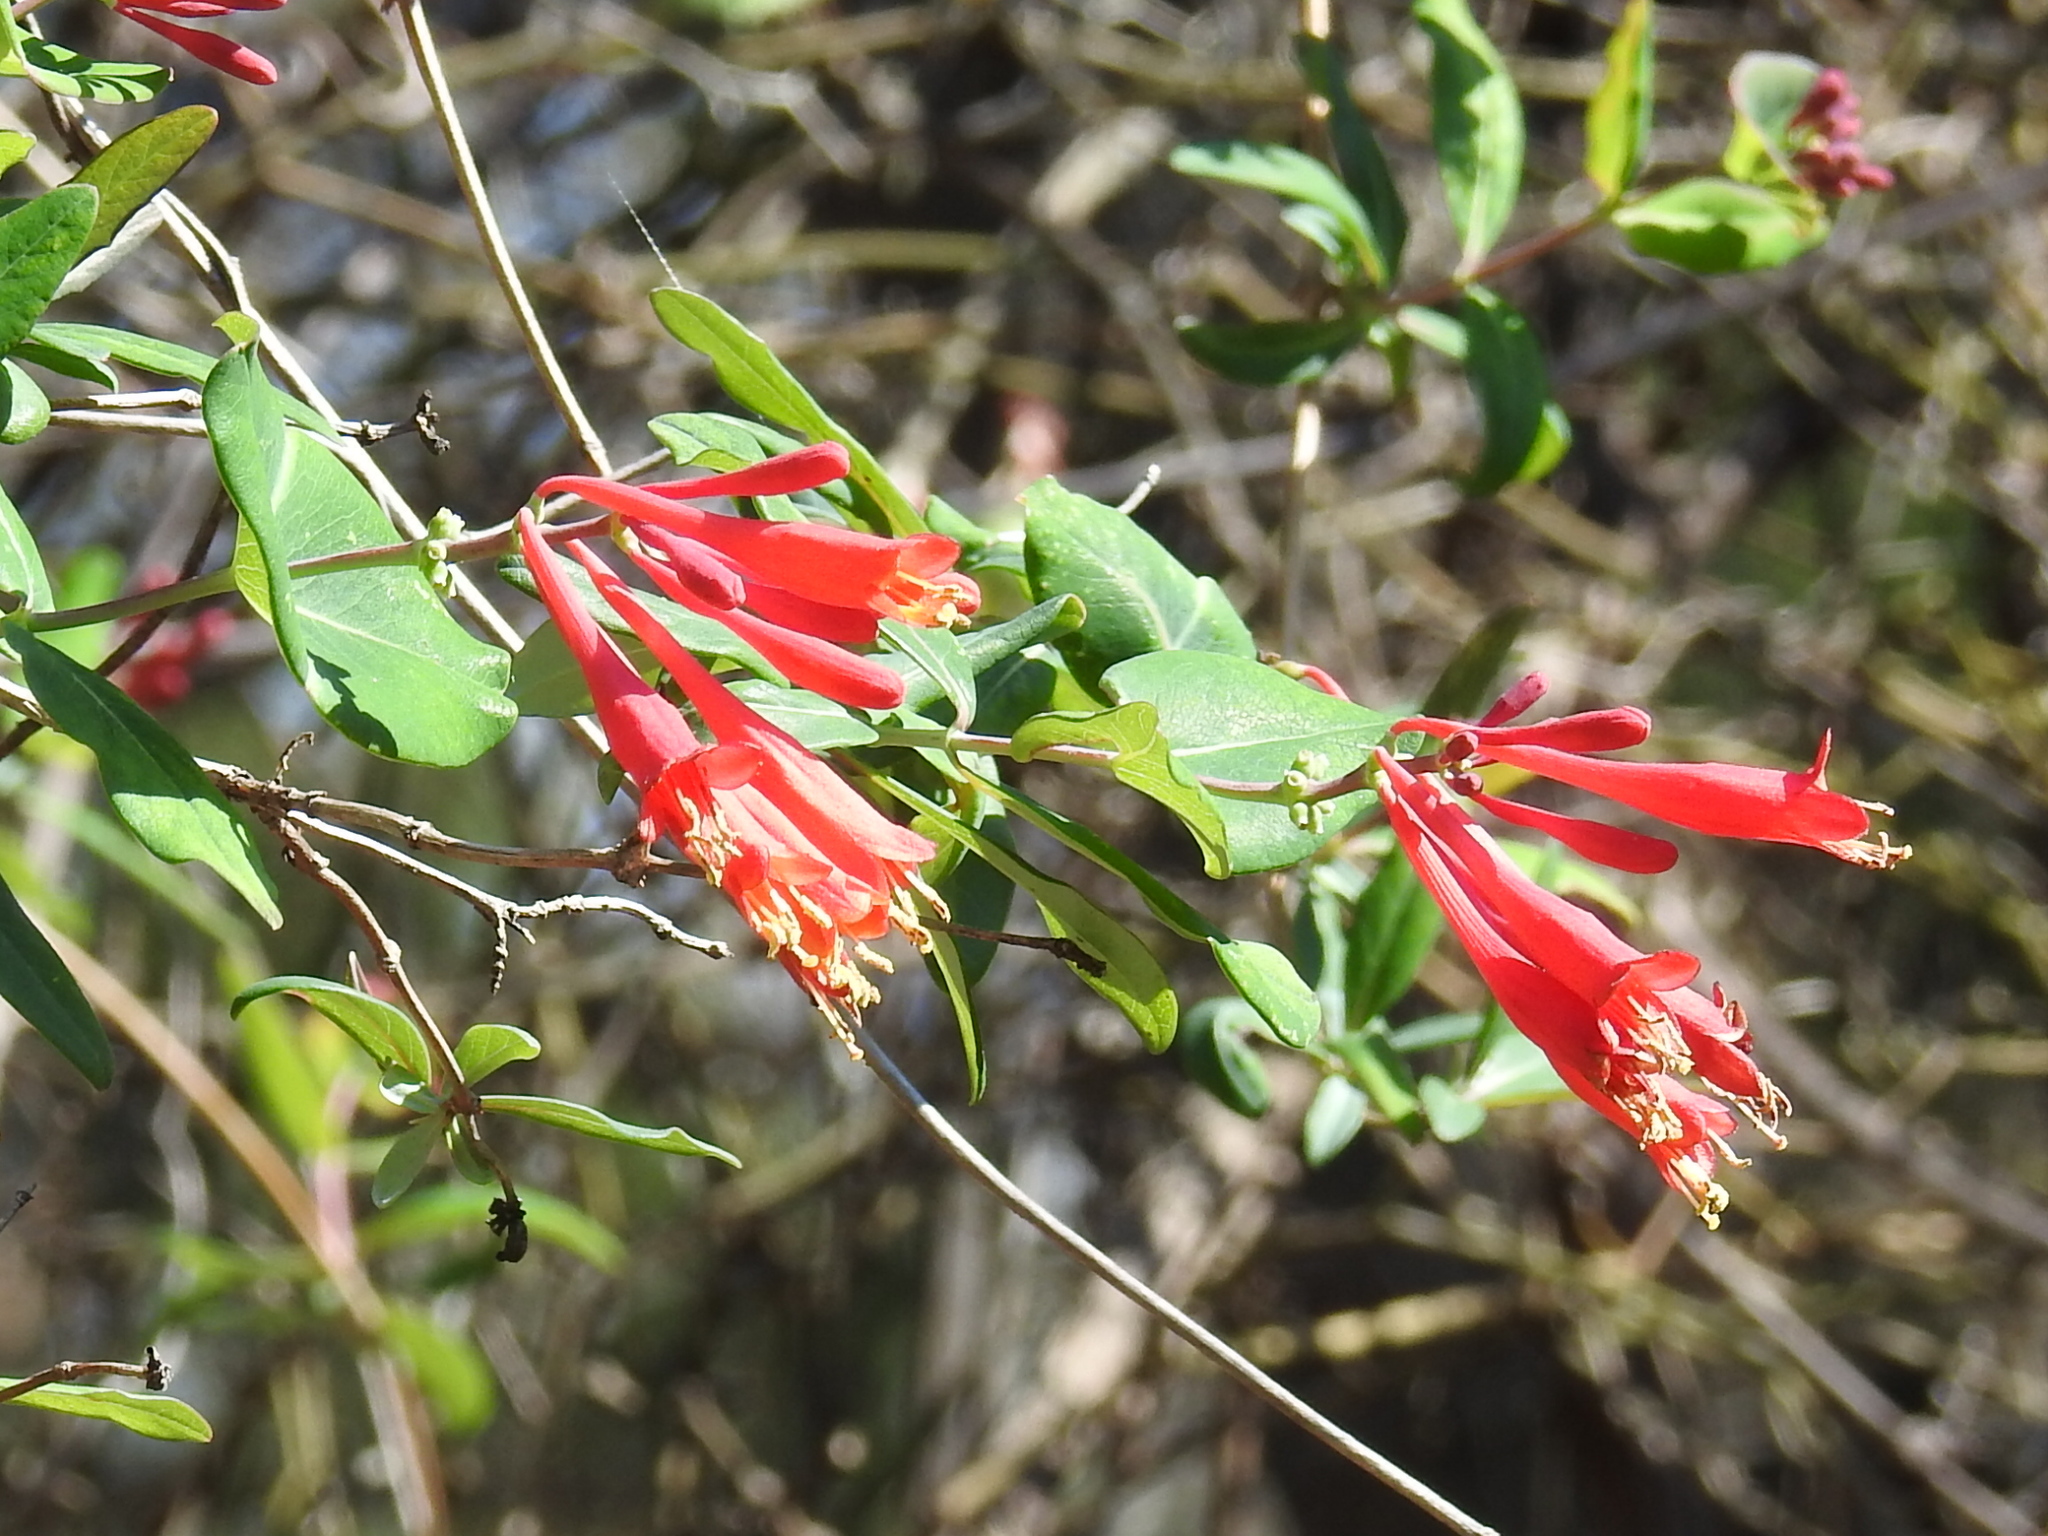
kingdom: Plantae
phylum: Tracheophyta
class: Magnoliopsida
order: Dipsacales
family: Caprifoliaceae
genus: Lonicera
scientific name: Lonicera sempervirens
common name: Coral honeysuckle
